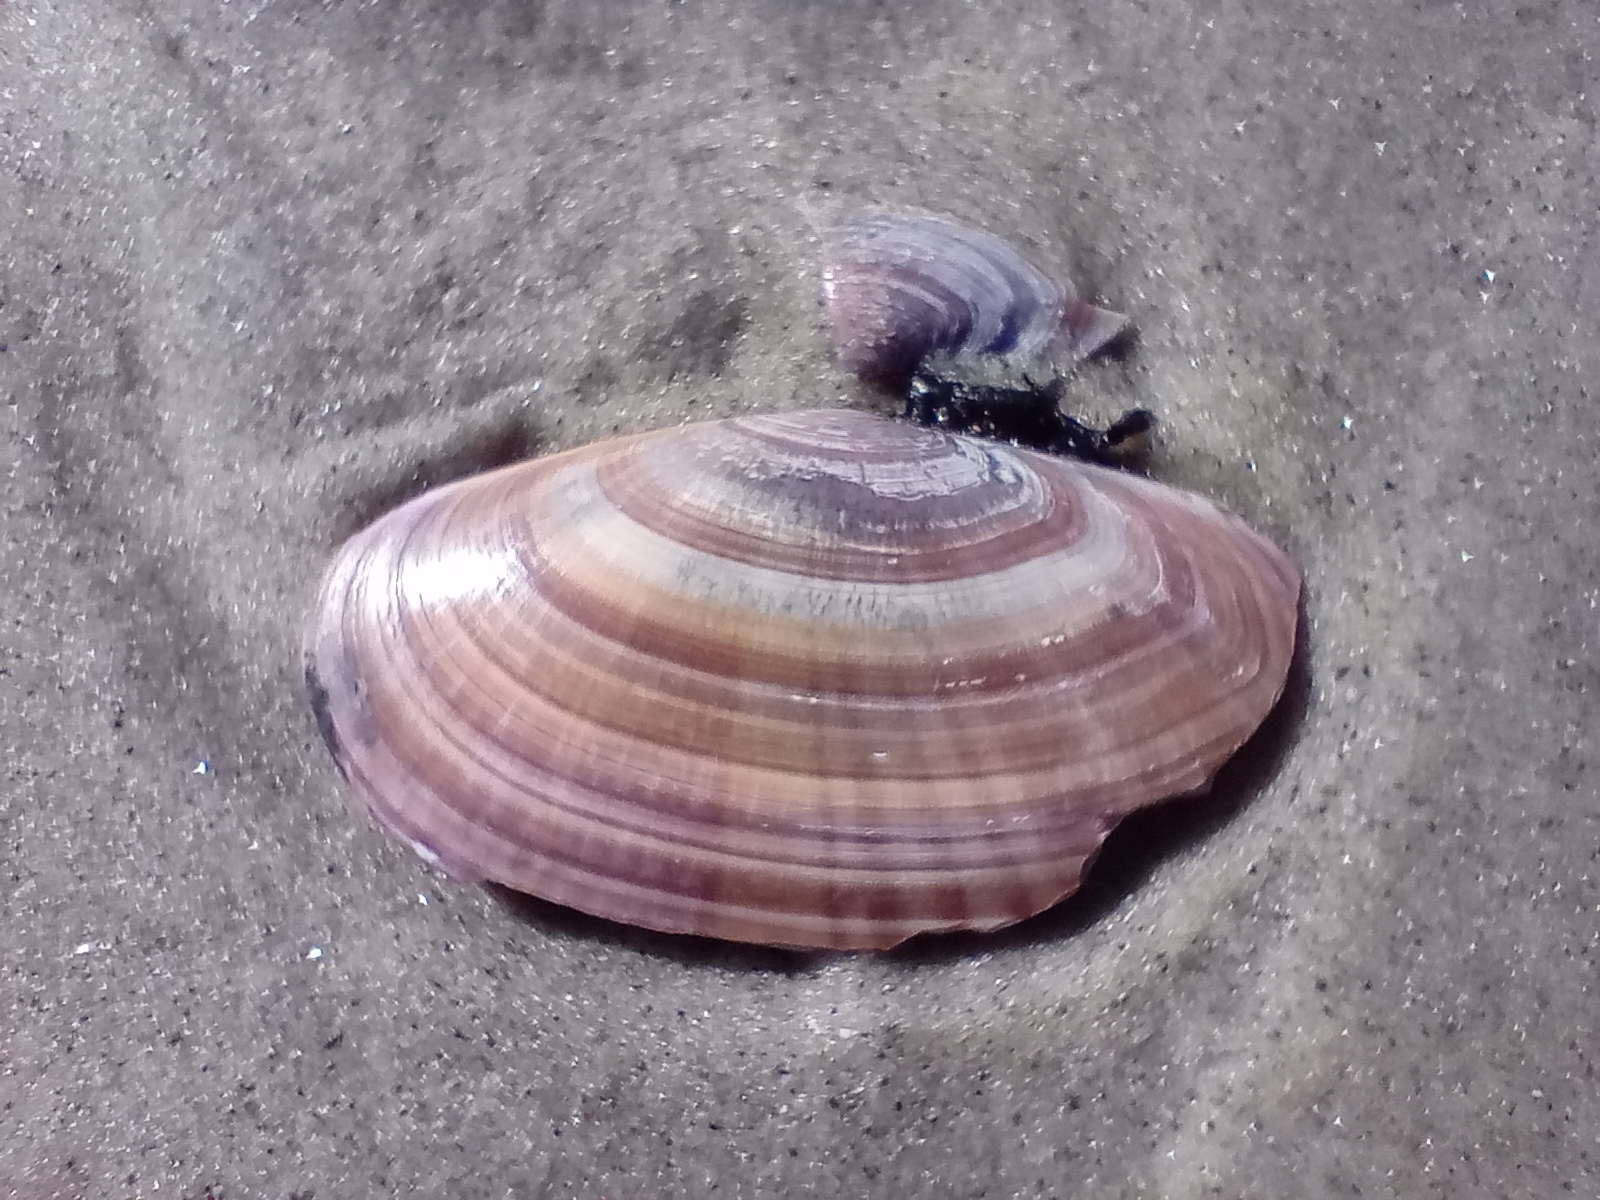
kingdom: Animalia
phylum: Mollusca
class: Bivalvia
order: Cardiida
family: Psammobiidae
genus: Gari
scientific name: Gari convexa
